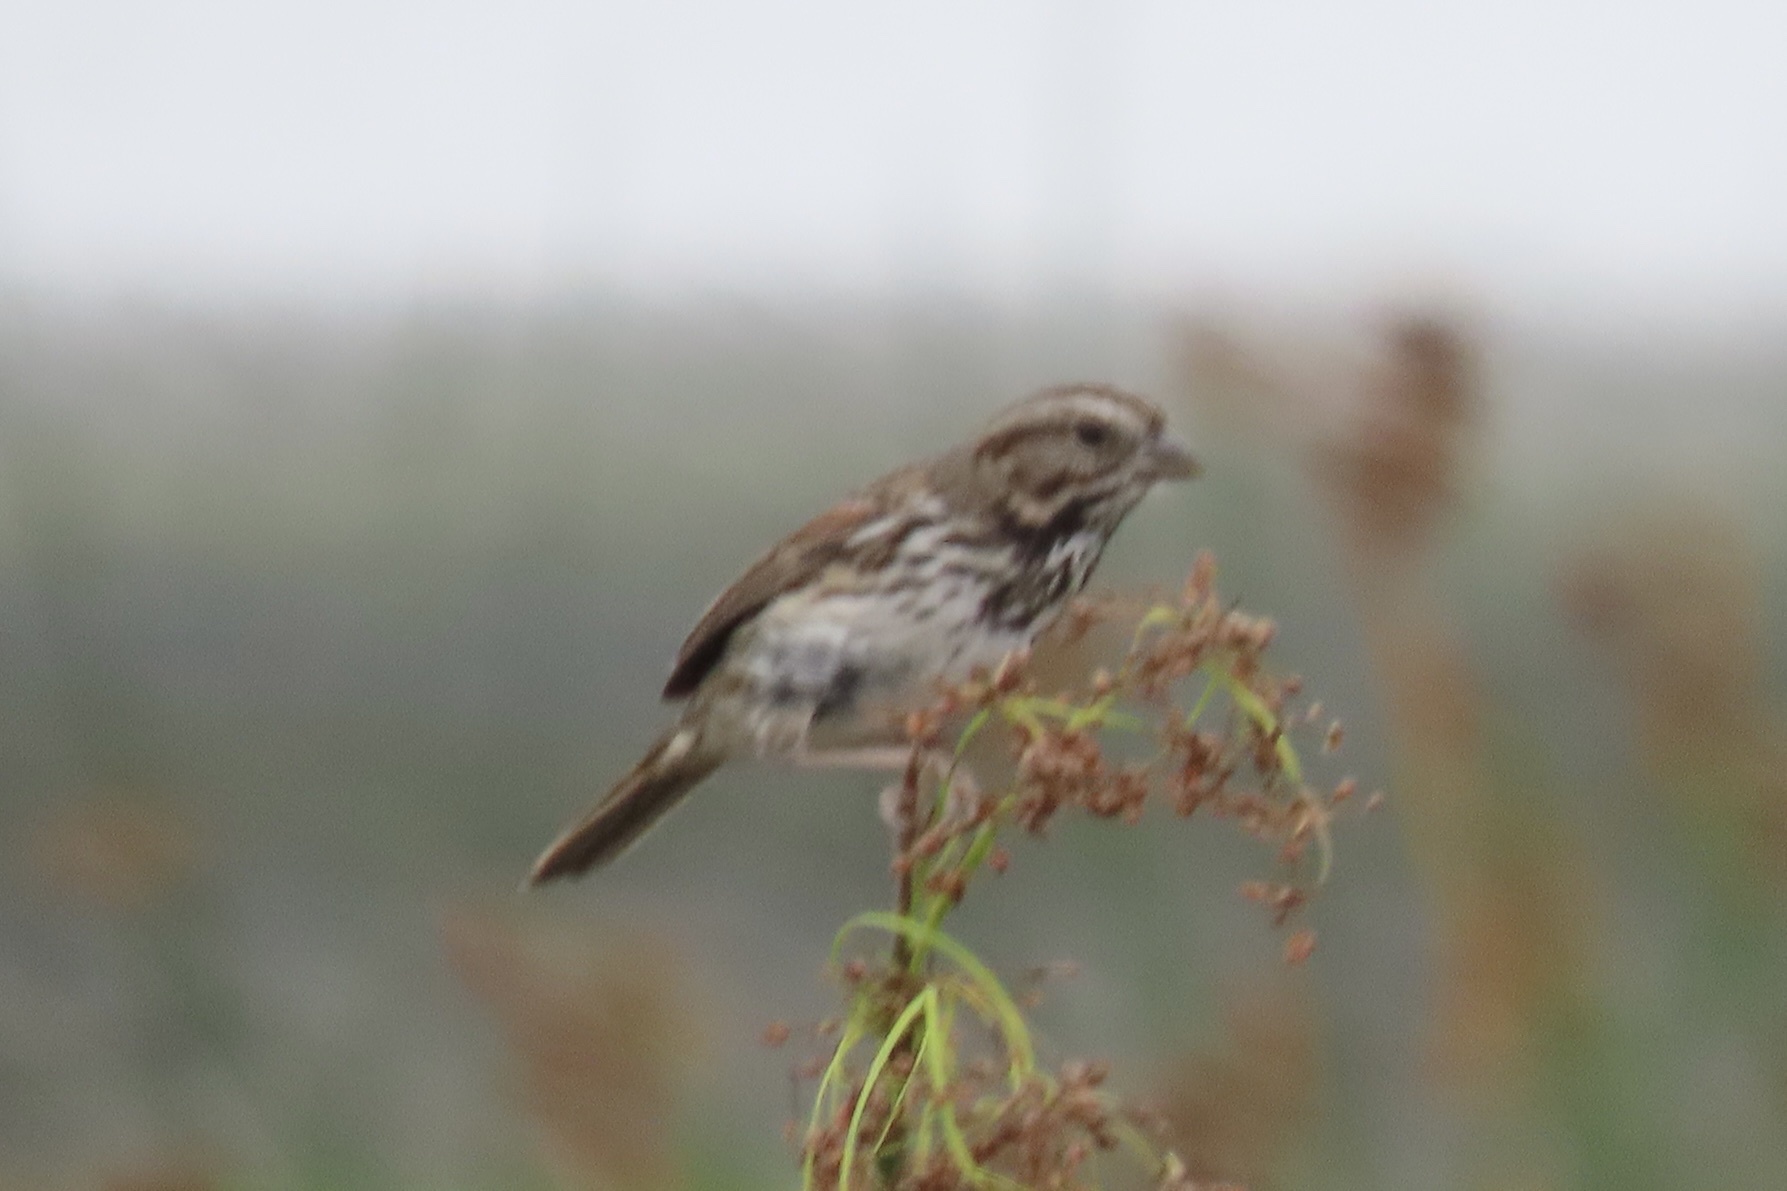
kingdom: Animalia
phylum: Chordata
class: Aves
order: Passeriformes
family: Passerellidae
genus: Melospiza
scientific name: Melospiza melodia
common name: Song sparrow
